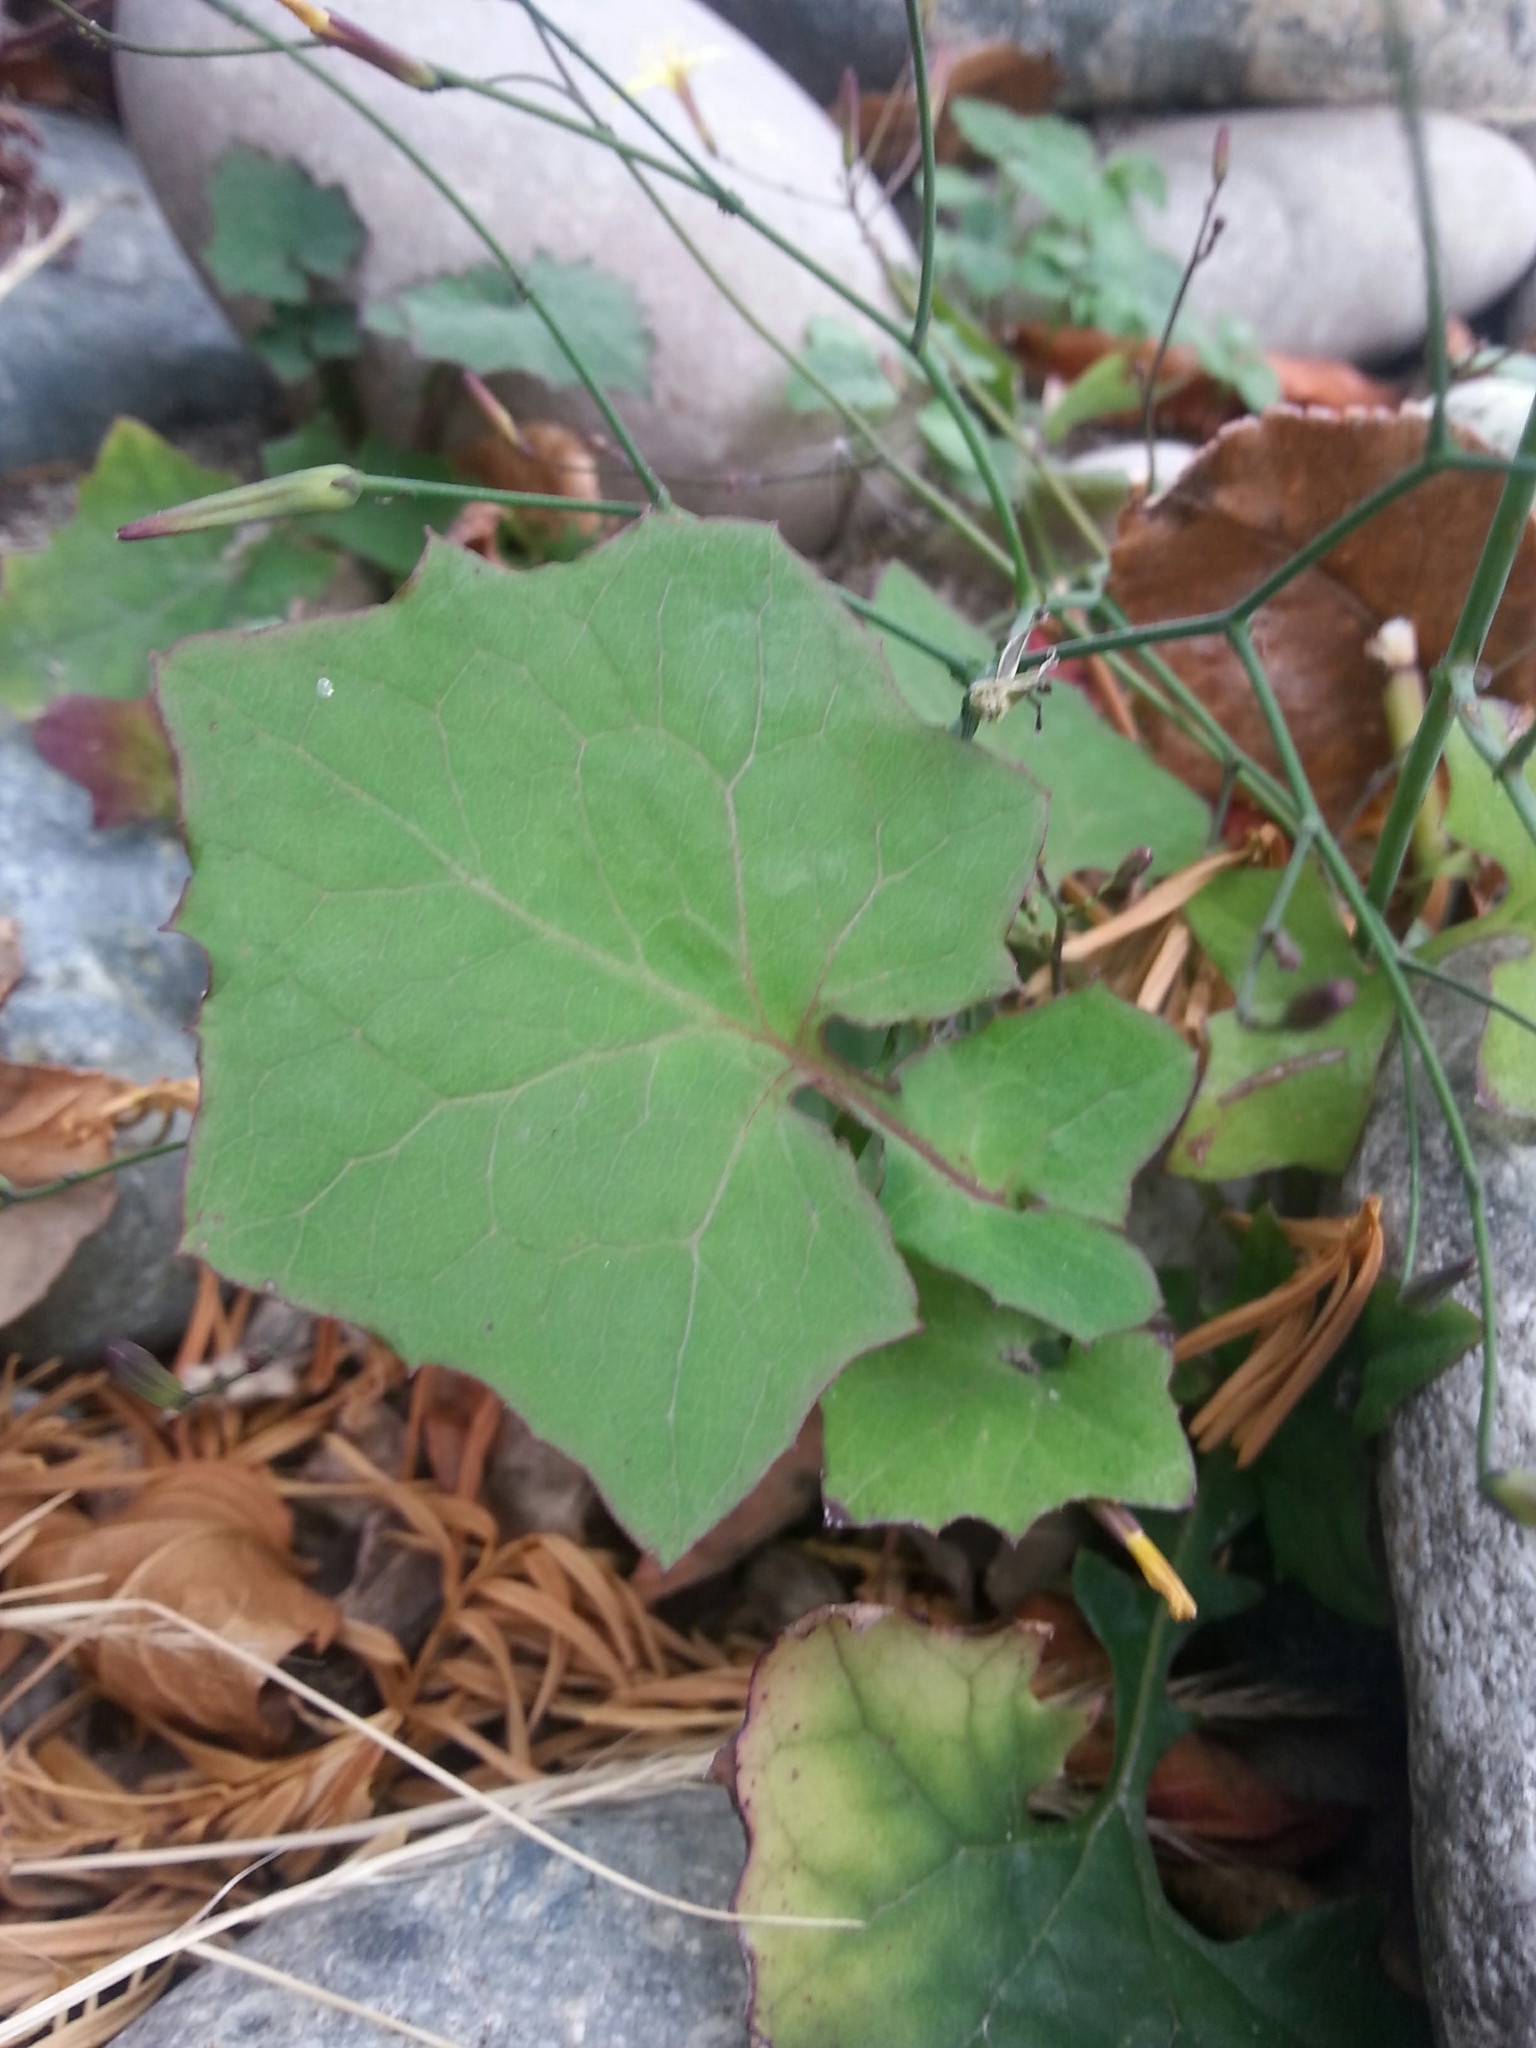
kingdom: Plantae
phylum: Tracheophyta
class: Magnoliopsida
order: Asterales
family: Asteraceae
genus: Mycelis
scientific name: Mycelis muralis
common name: Wall lettuce
